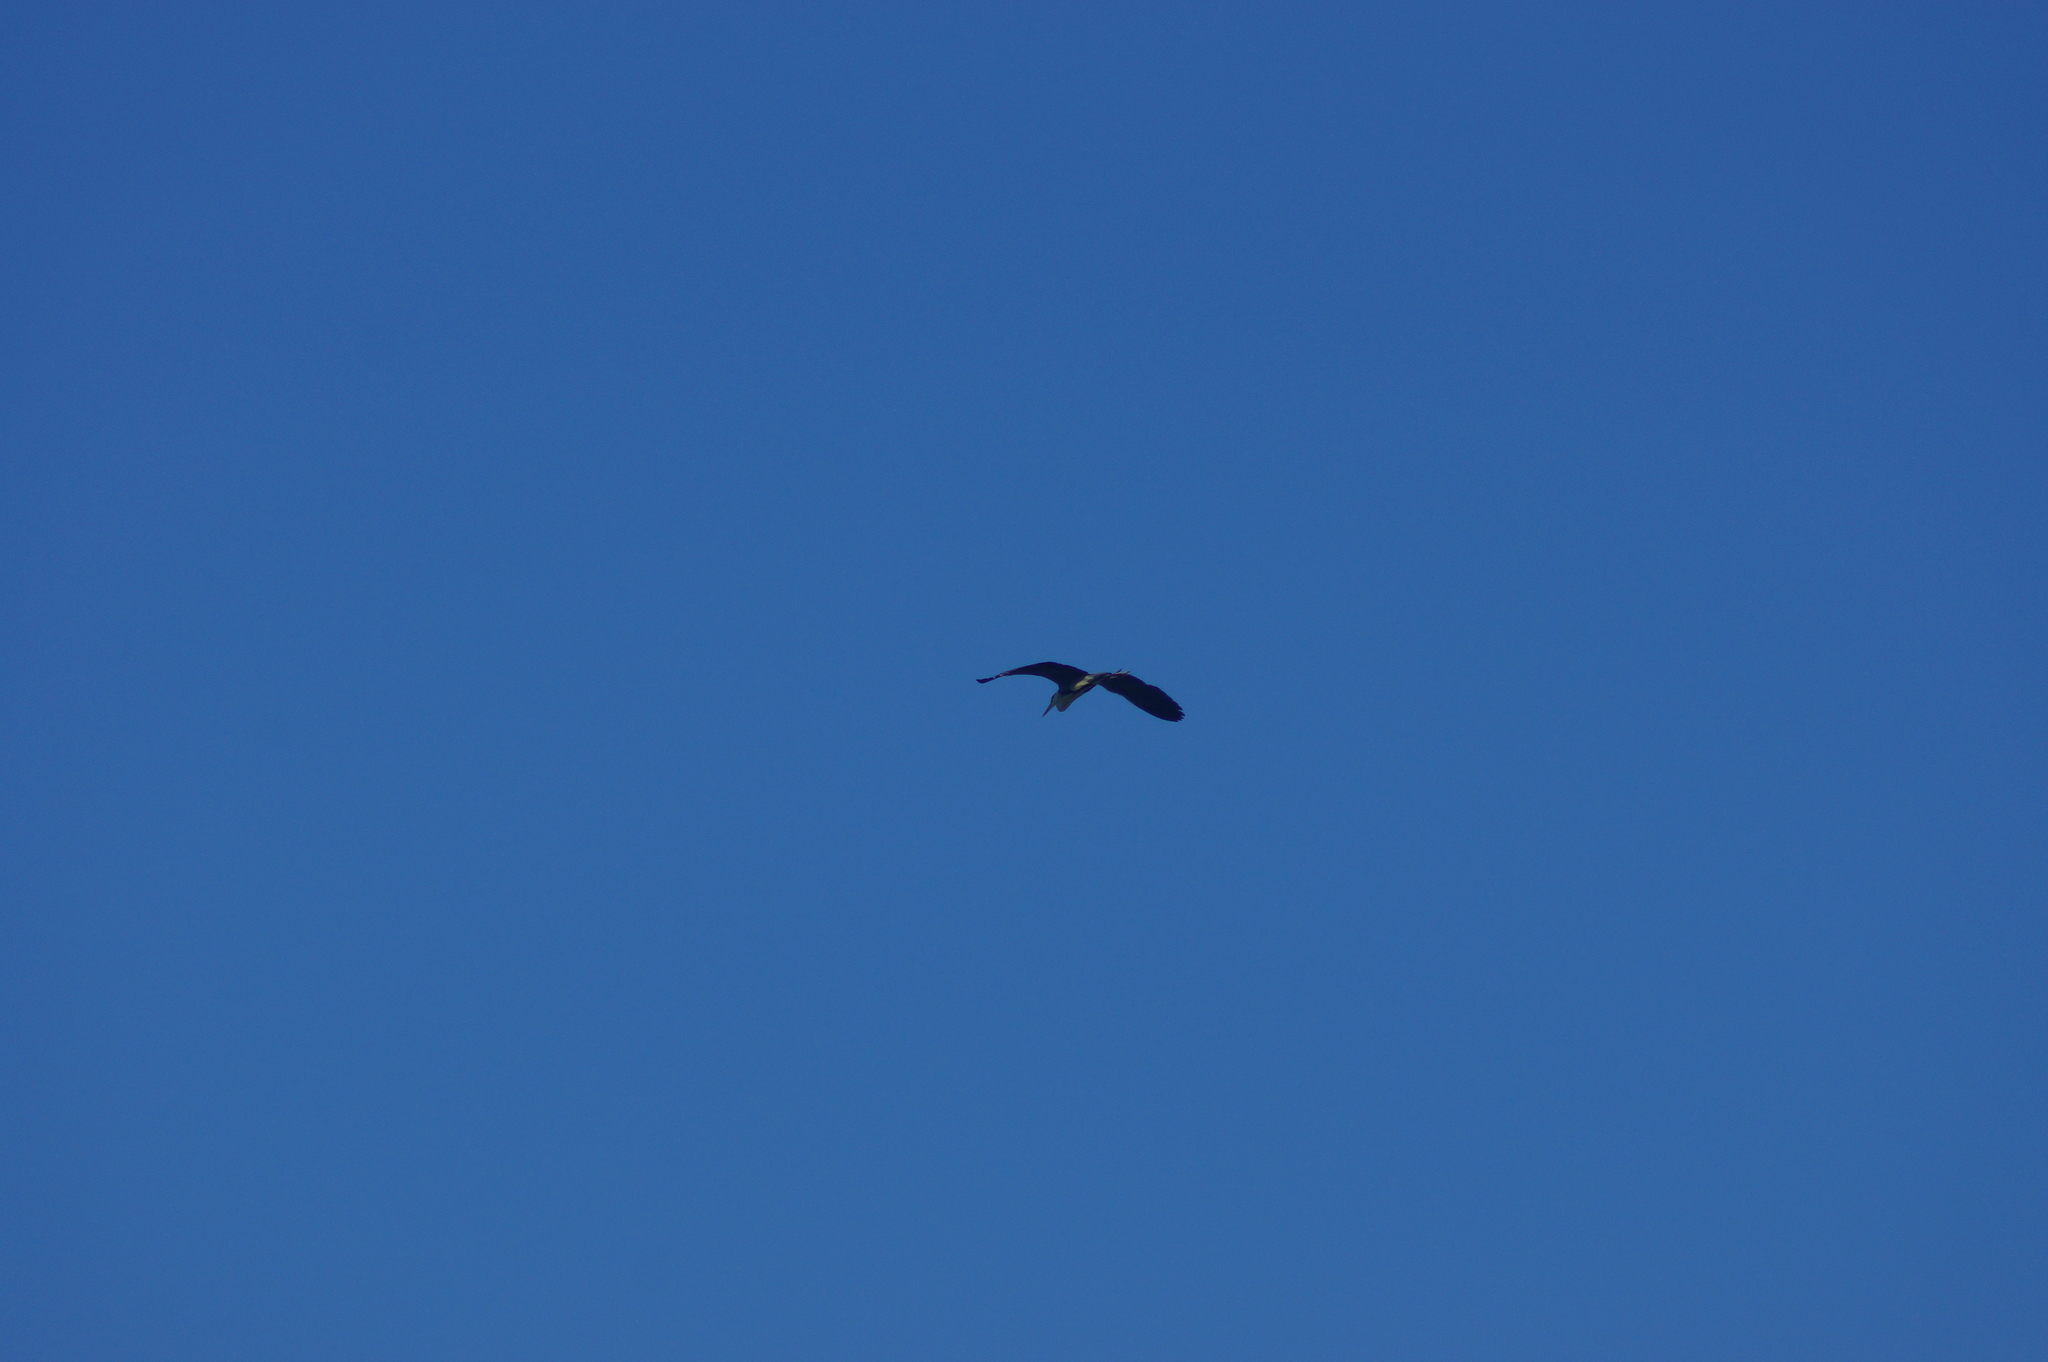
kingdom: Animalia
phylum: Chordata
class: Aves
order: Pelecaniformes
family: Ardeidae
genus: Ardea
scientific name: Ardea cinerea
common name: Grey heron
